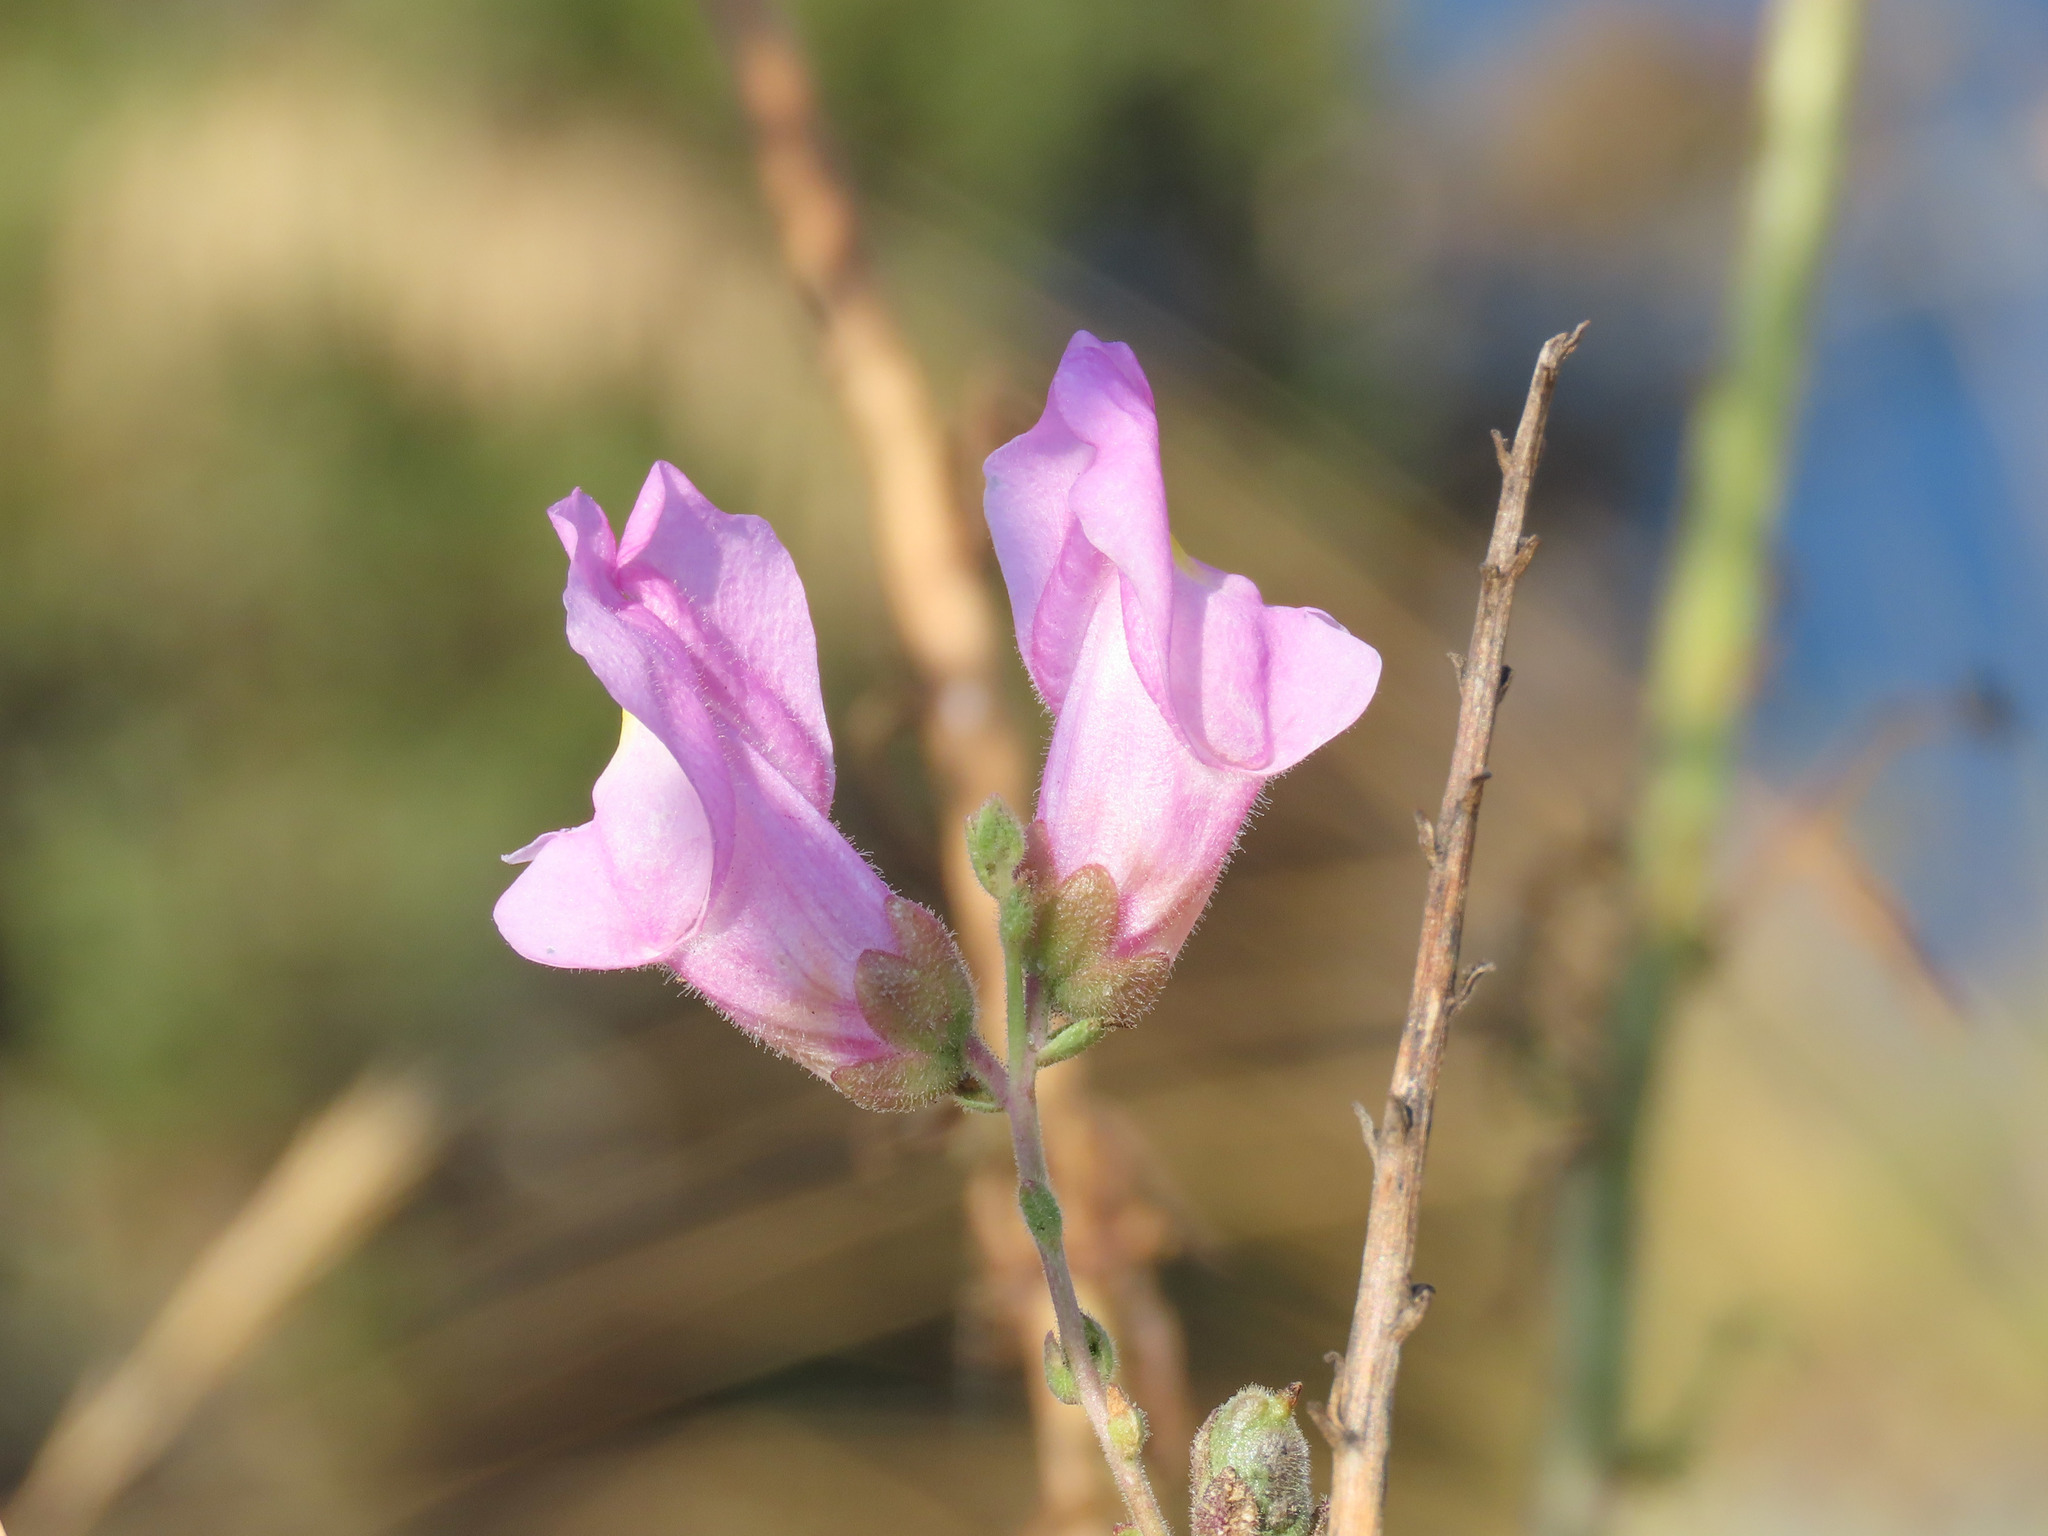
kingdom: Plantae
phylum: Tracheophyta
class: Magnoliopsida
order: Lamiales
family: Plantaginaceae
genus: Antirrhinum
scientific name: Antirrhinum tortuosum
